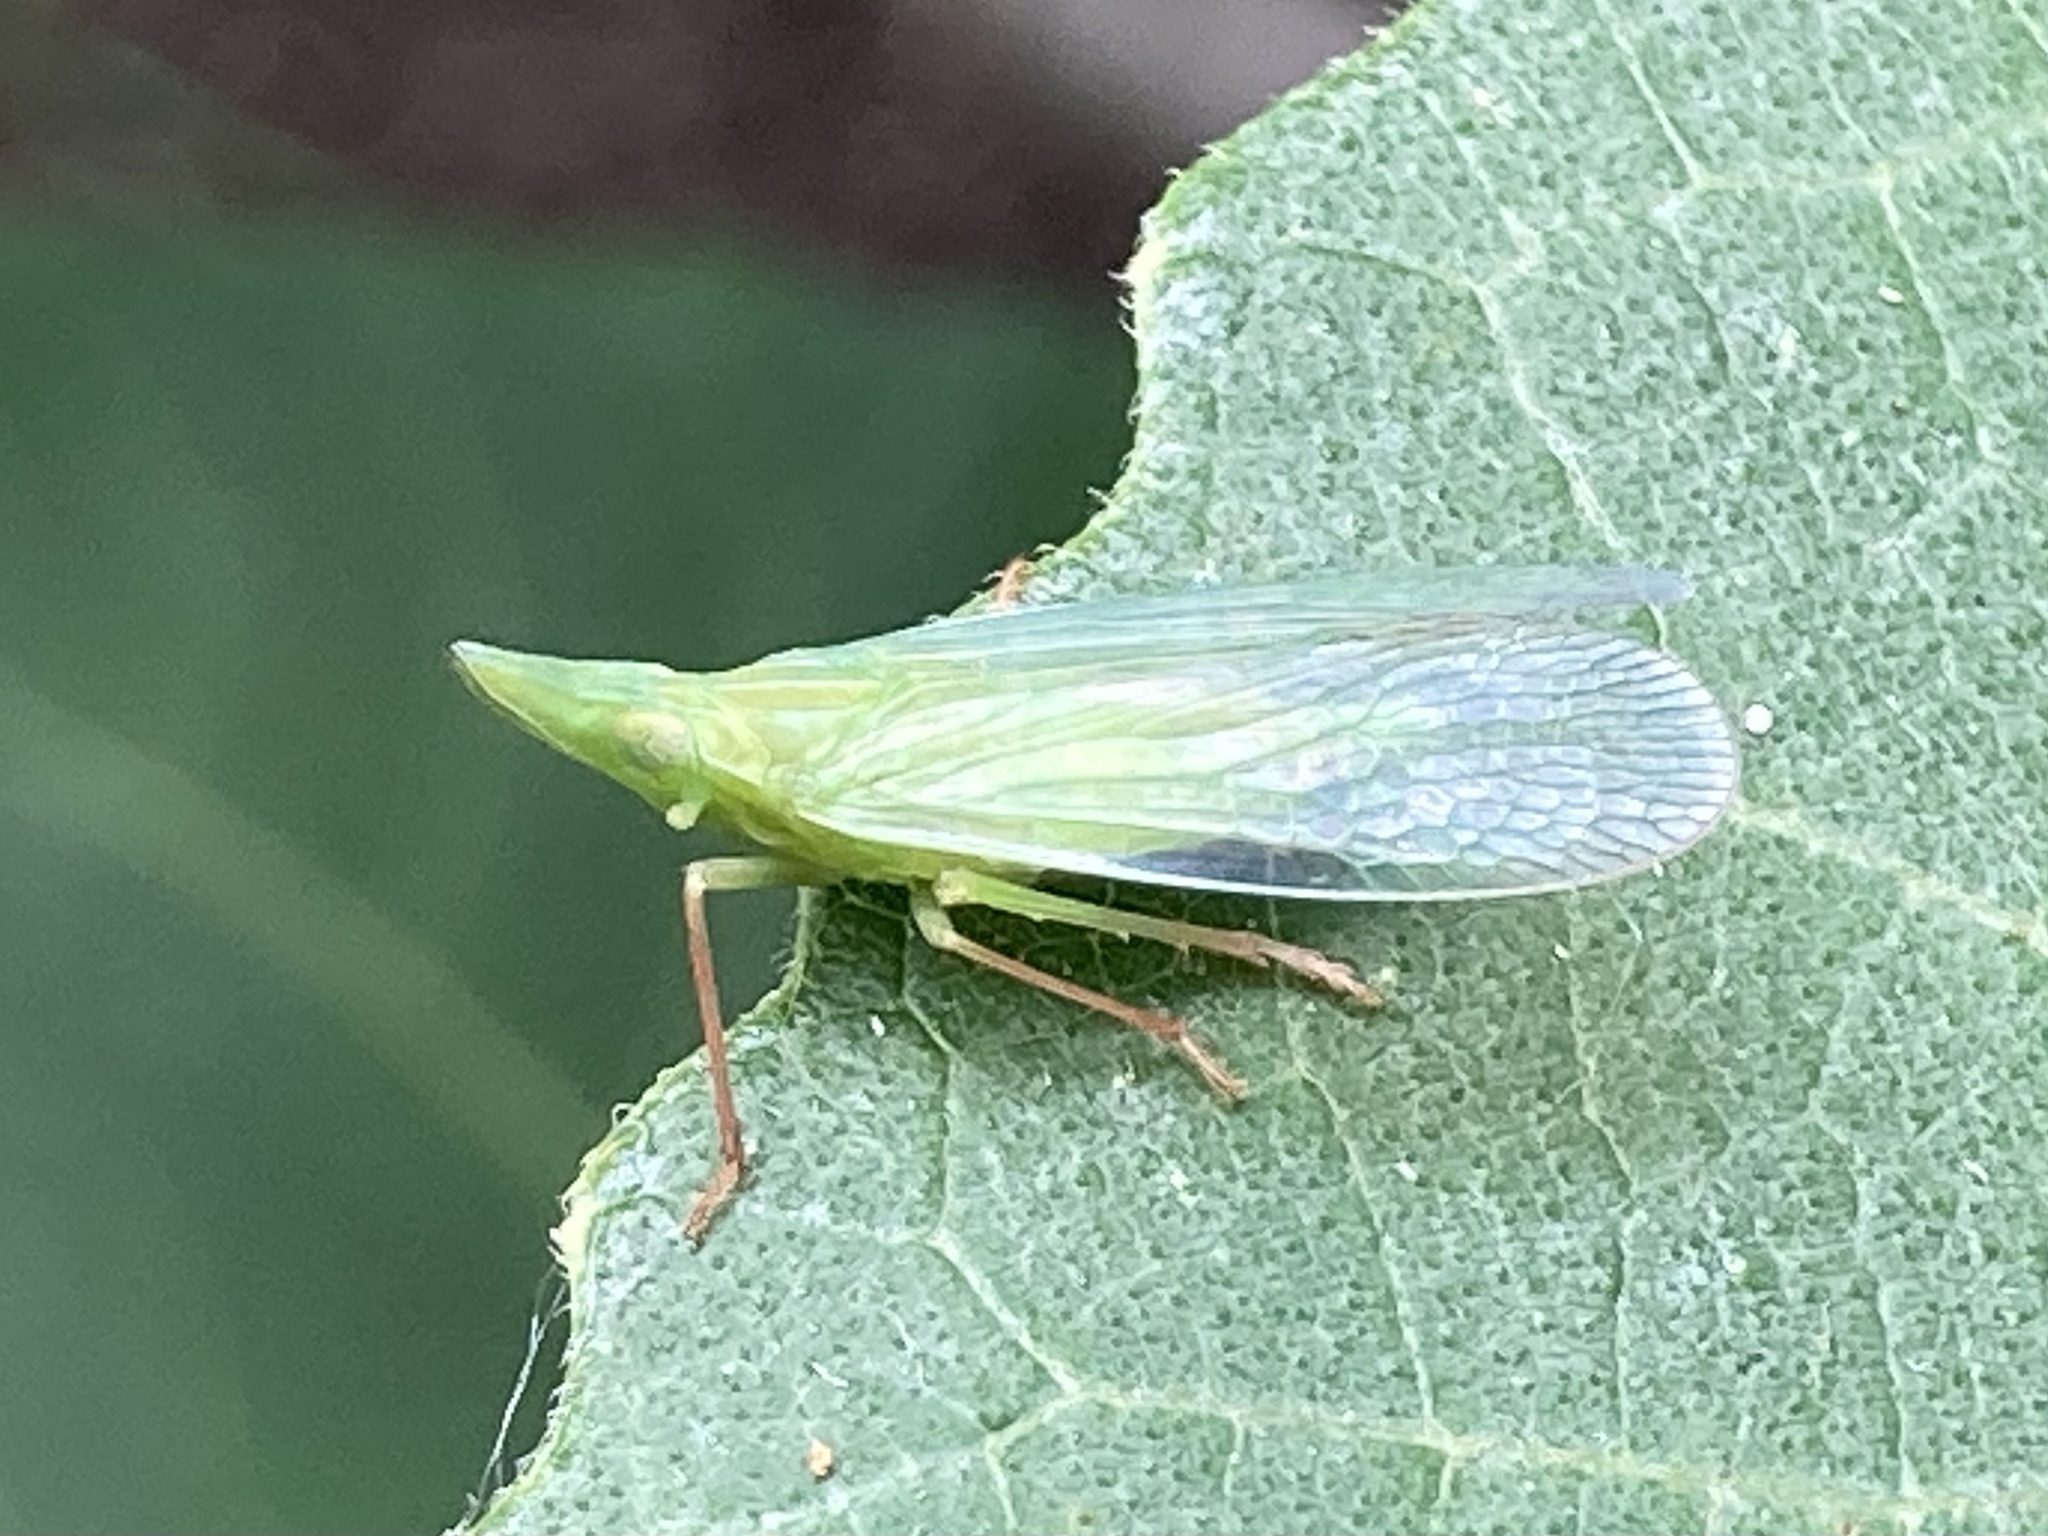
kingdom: Animalia
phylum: Arthropoda
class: Insecta
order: Hemiptera
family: Dictyopharidae
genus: Rhynchomitra
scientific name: Rhynchomitra microrhina
